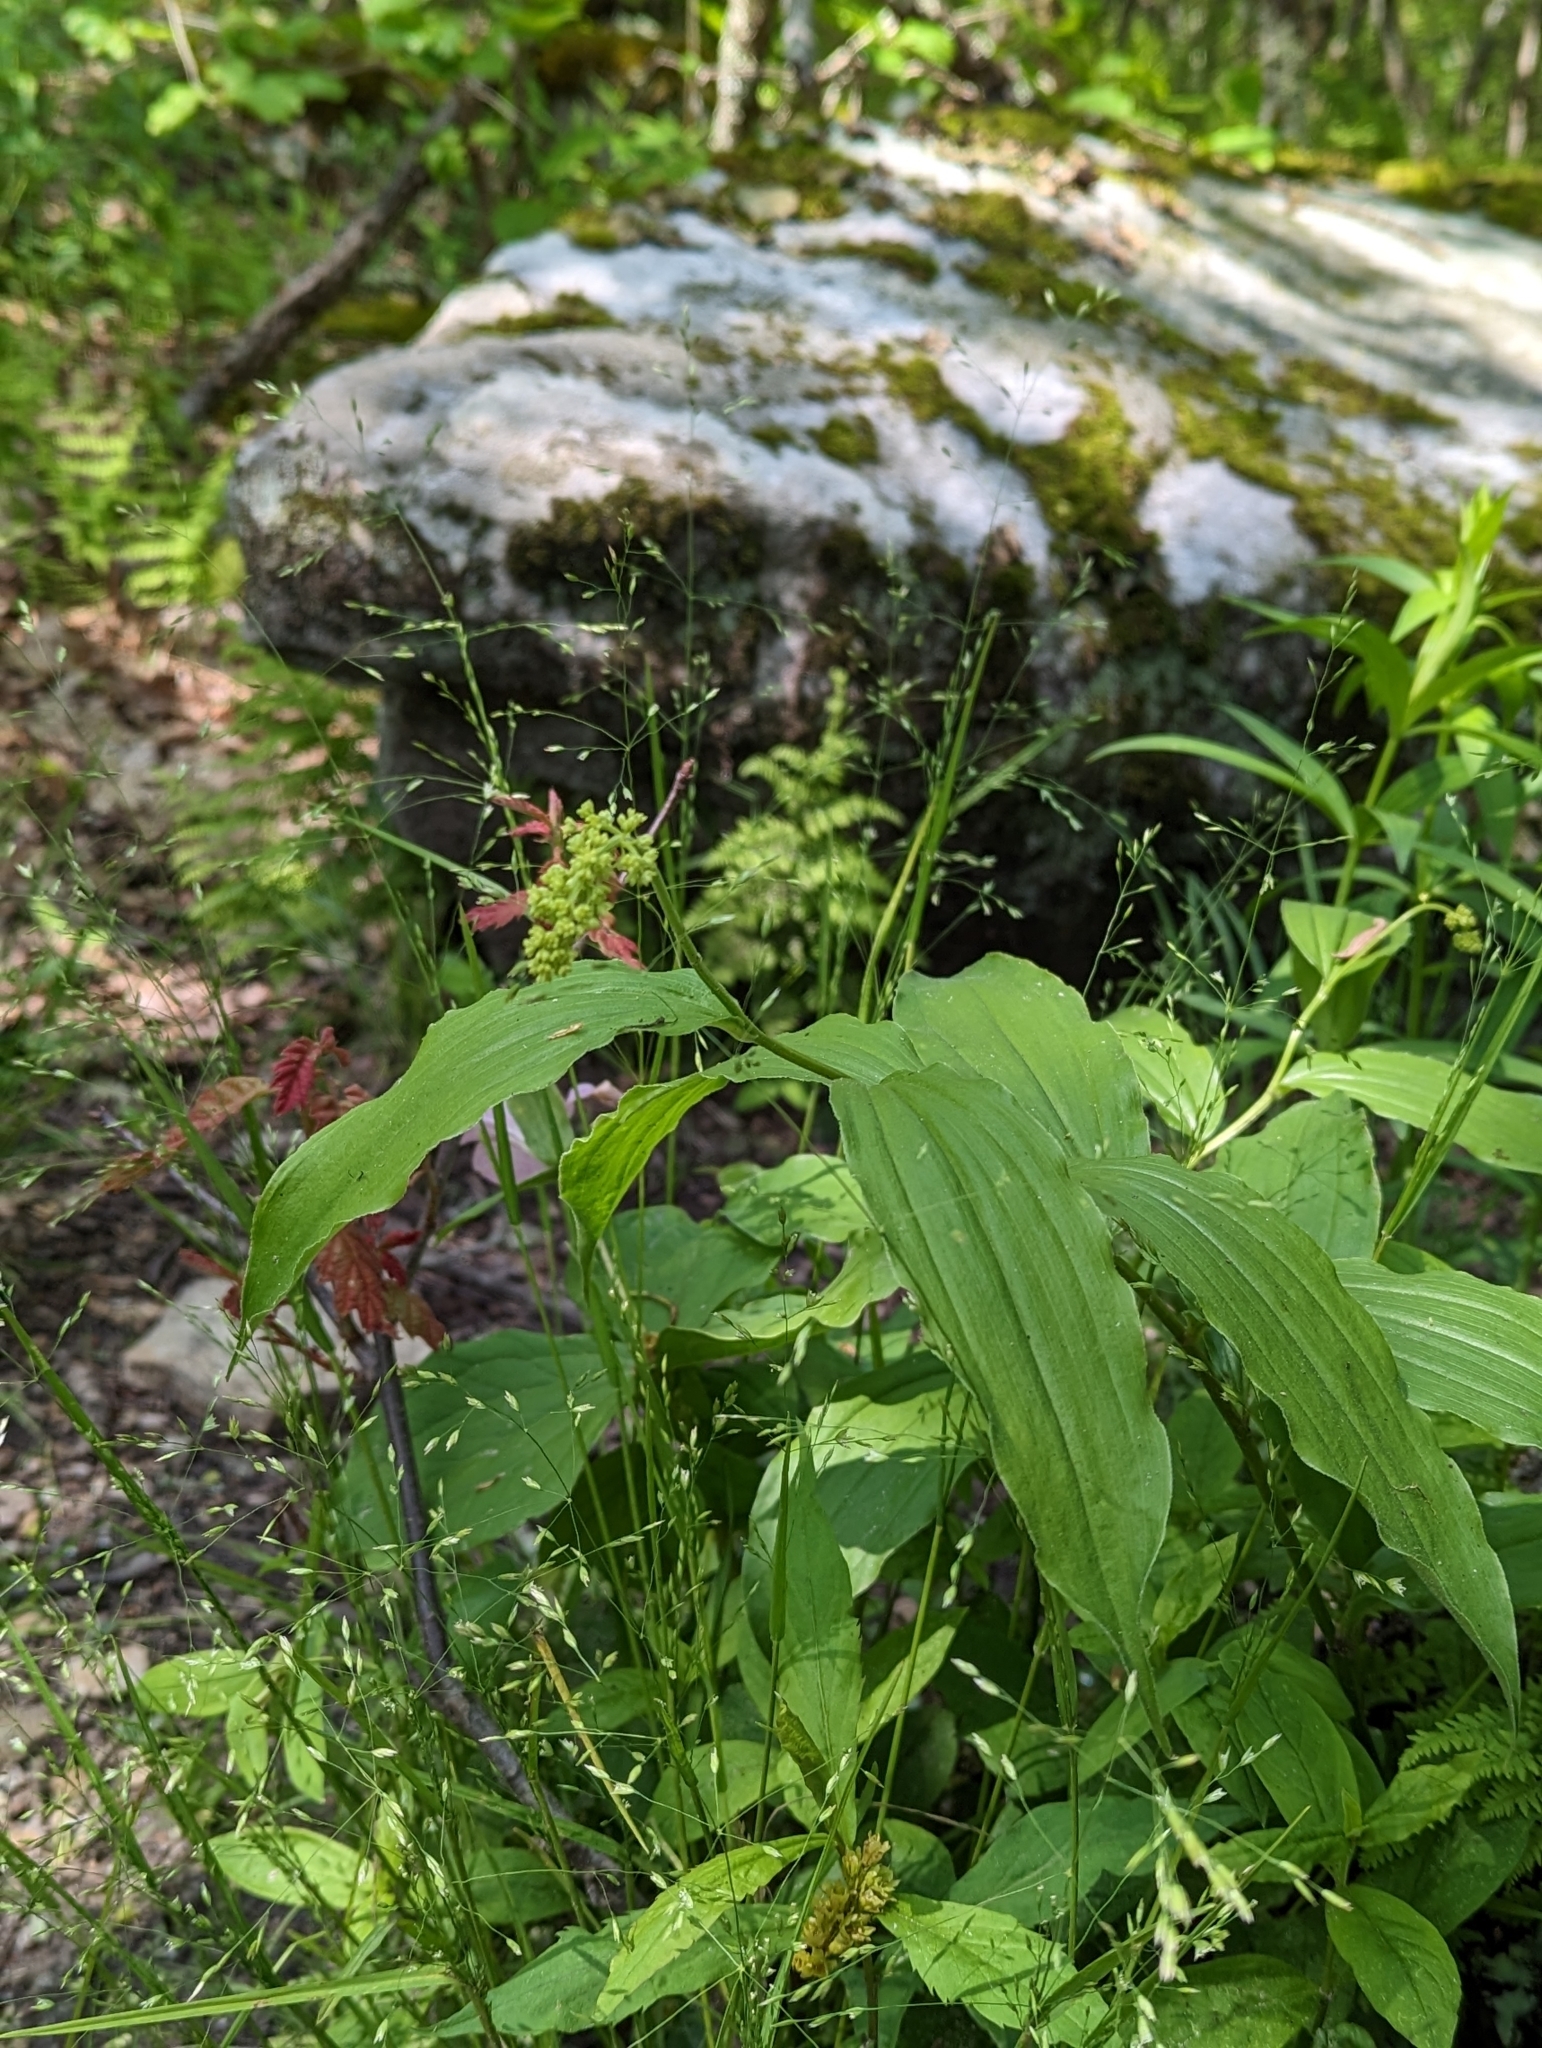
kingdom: Plantae
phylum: Tracheophyta
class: Liliopsida
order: Asparagales
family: Asparagaceae
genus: Maianthemum
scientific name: Maianthemum racemosum
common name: False spikenard
